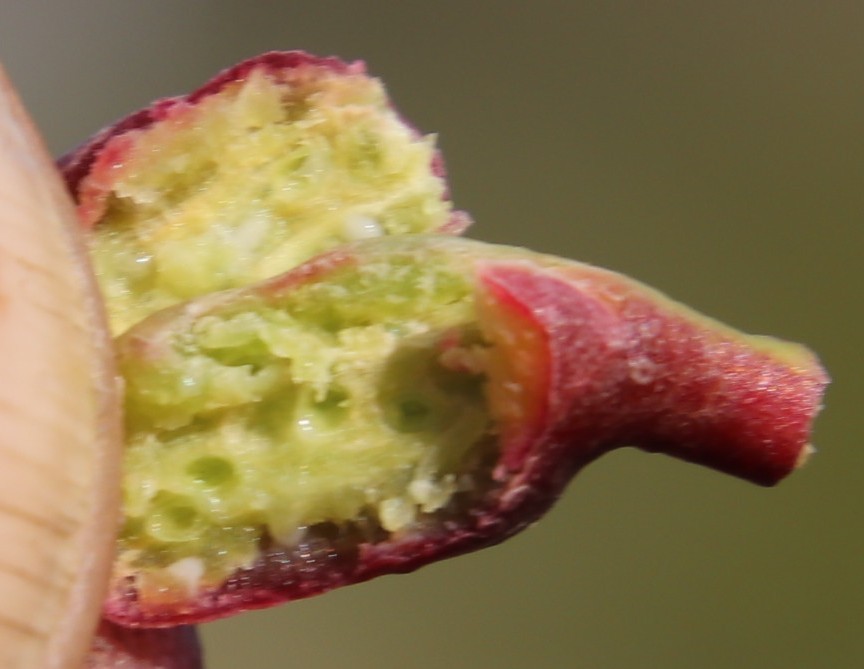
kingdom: Animalia
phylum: Arthropoda
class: Insecta
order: Hymenoptera
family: Eulophidae
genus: Leptocybe
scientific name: Leptocybe invasa
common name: Gall wasp
